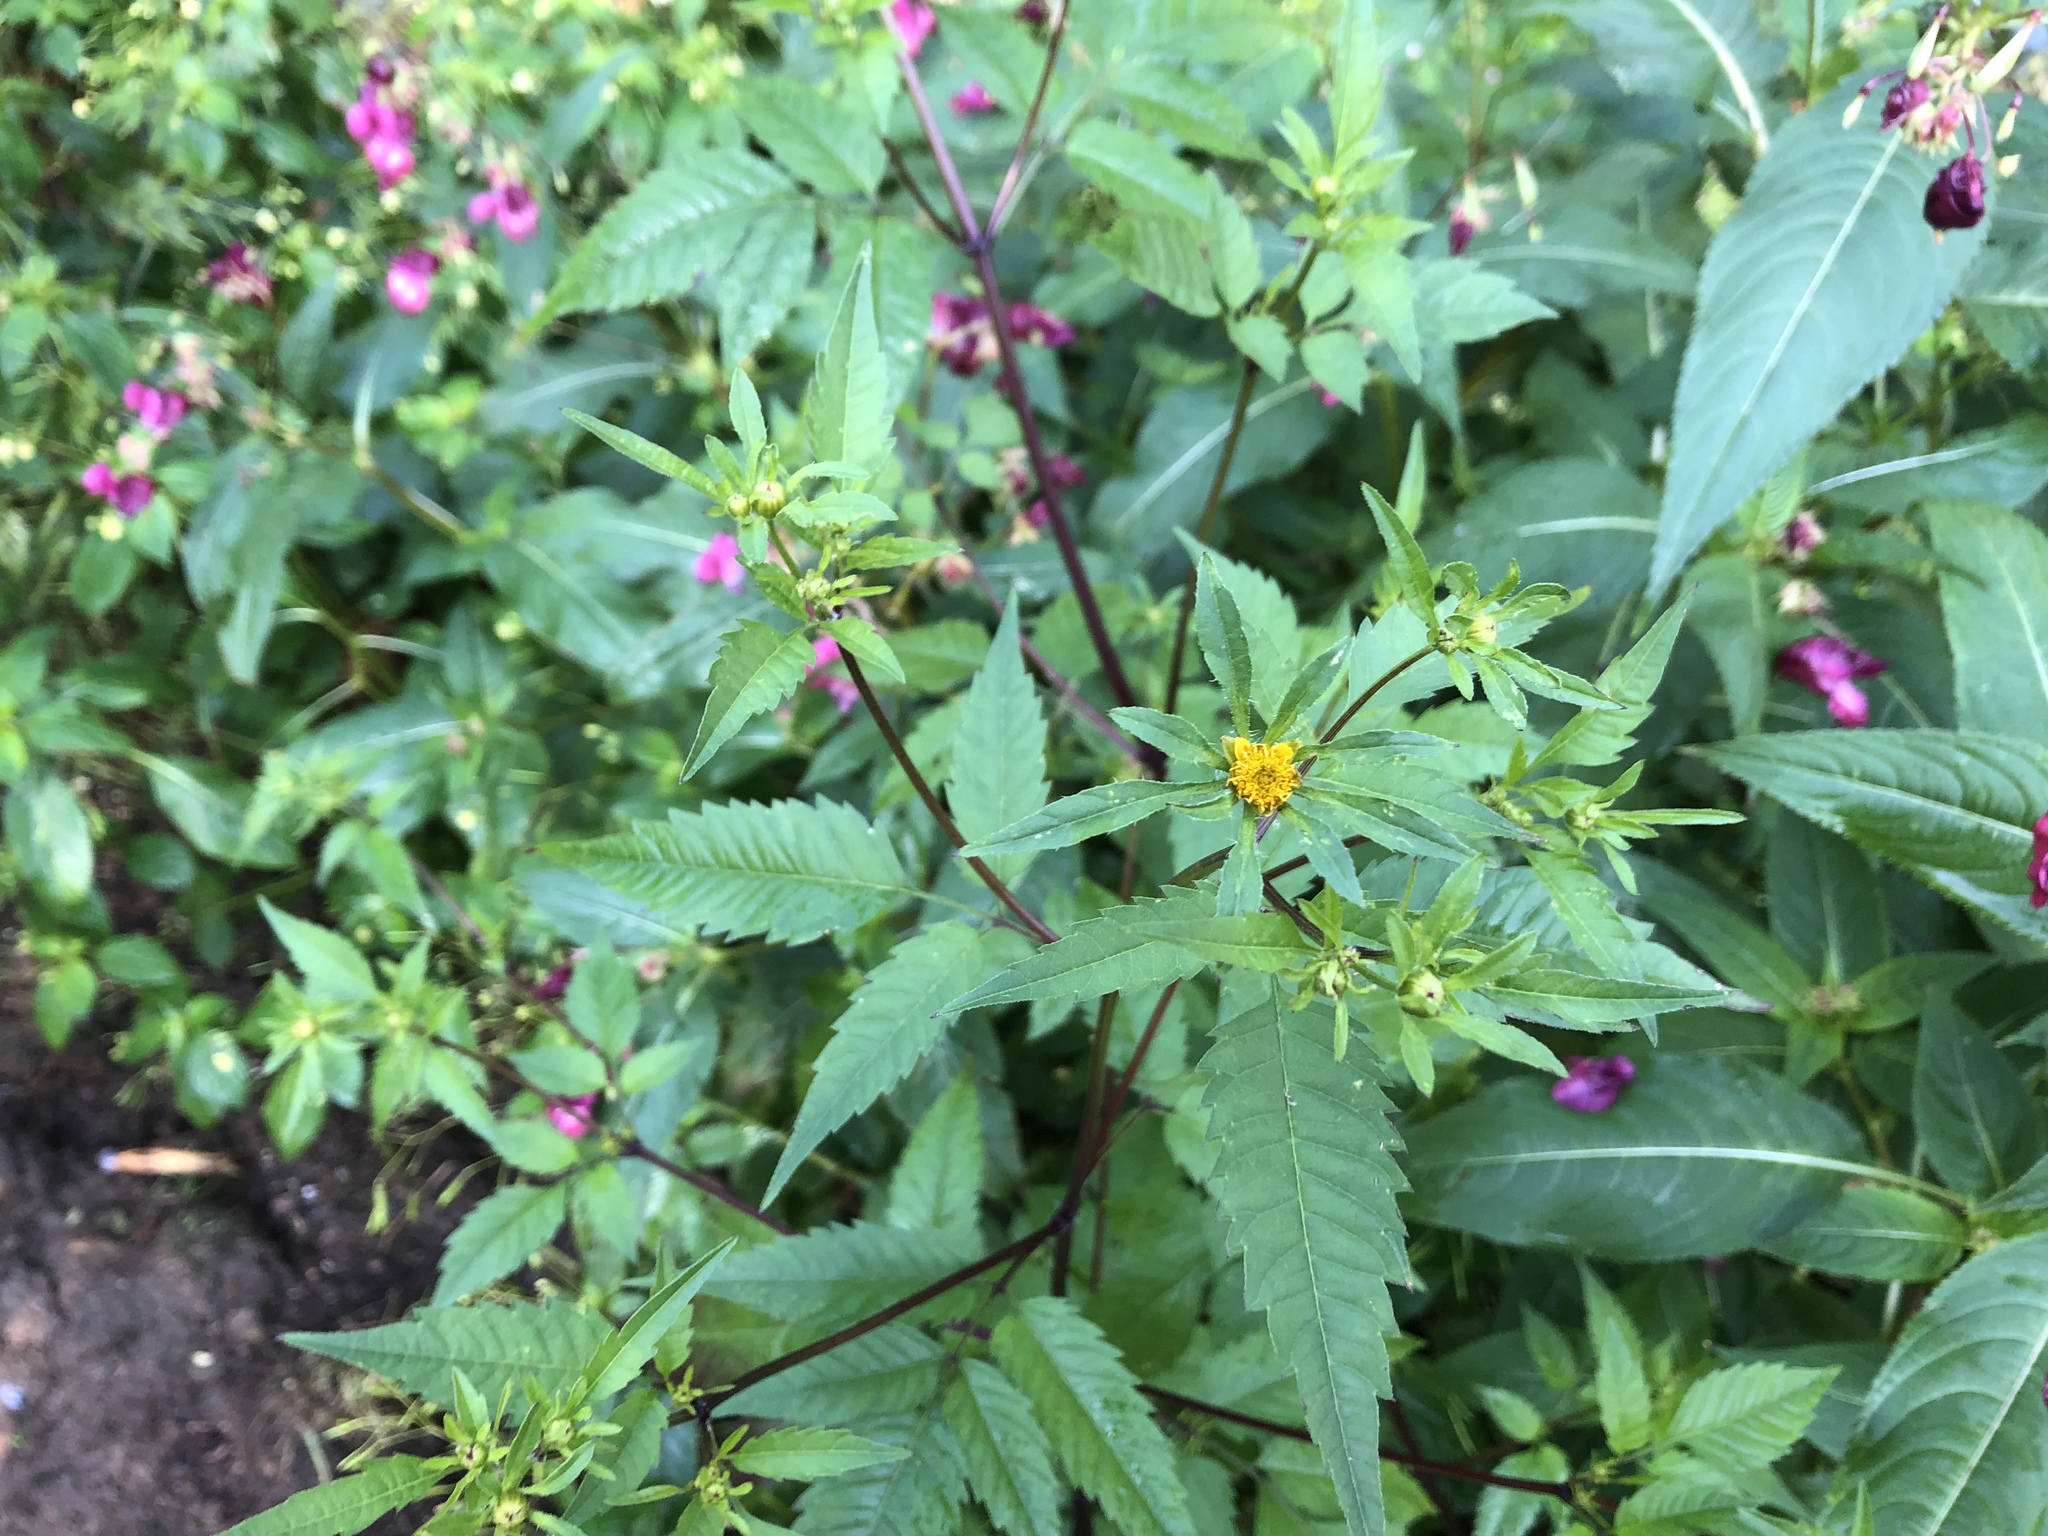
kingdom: Plantae
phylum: Tracheophyta
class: Magnoliopsida
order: Asterales
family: Asteraceae
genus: Bidens
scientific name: Bidens frondosa
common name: Beggarticks
